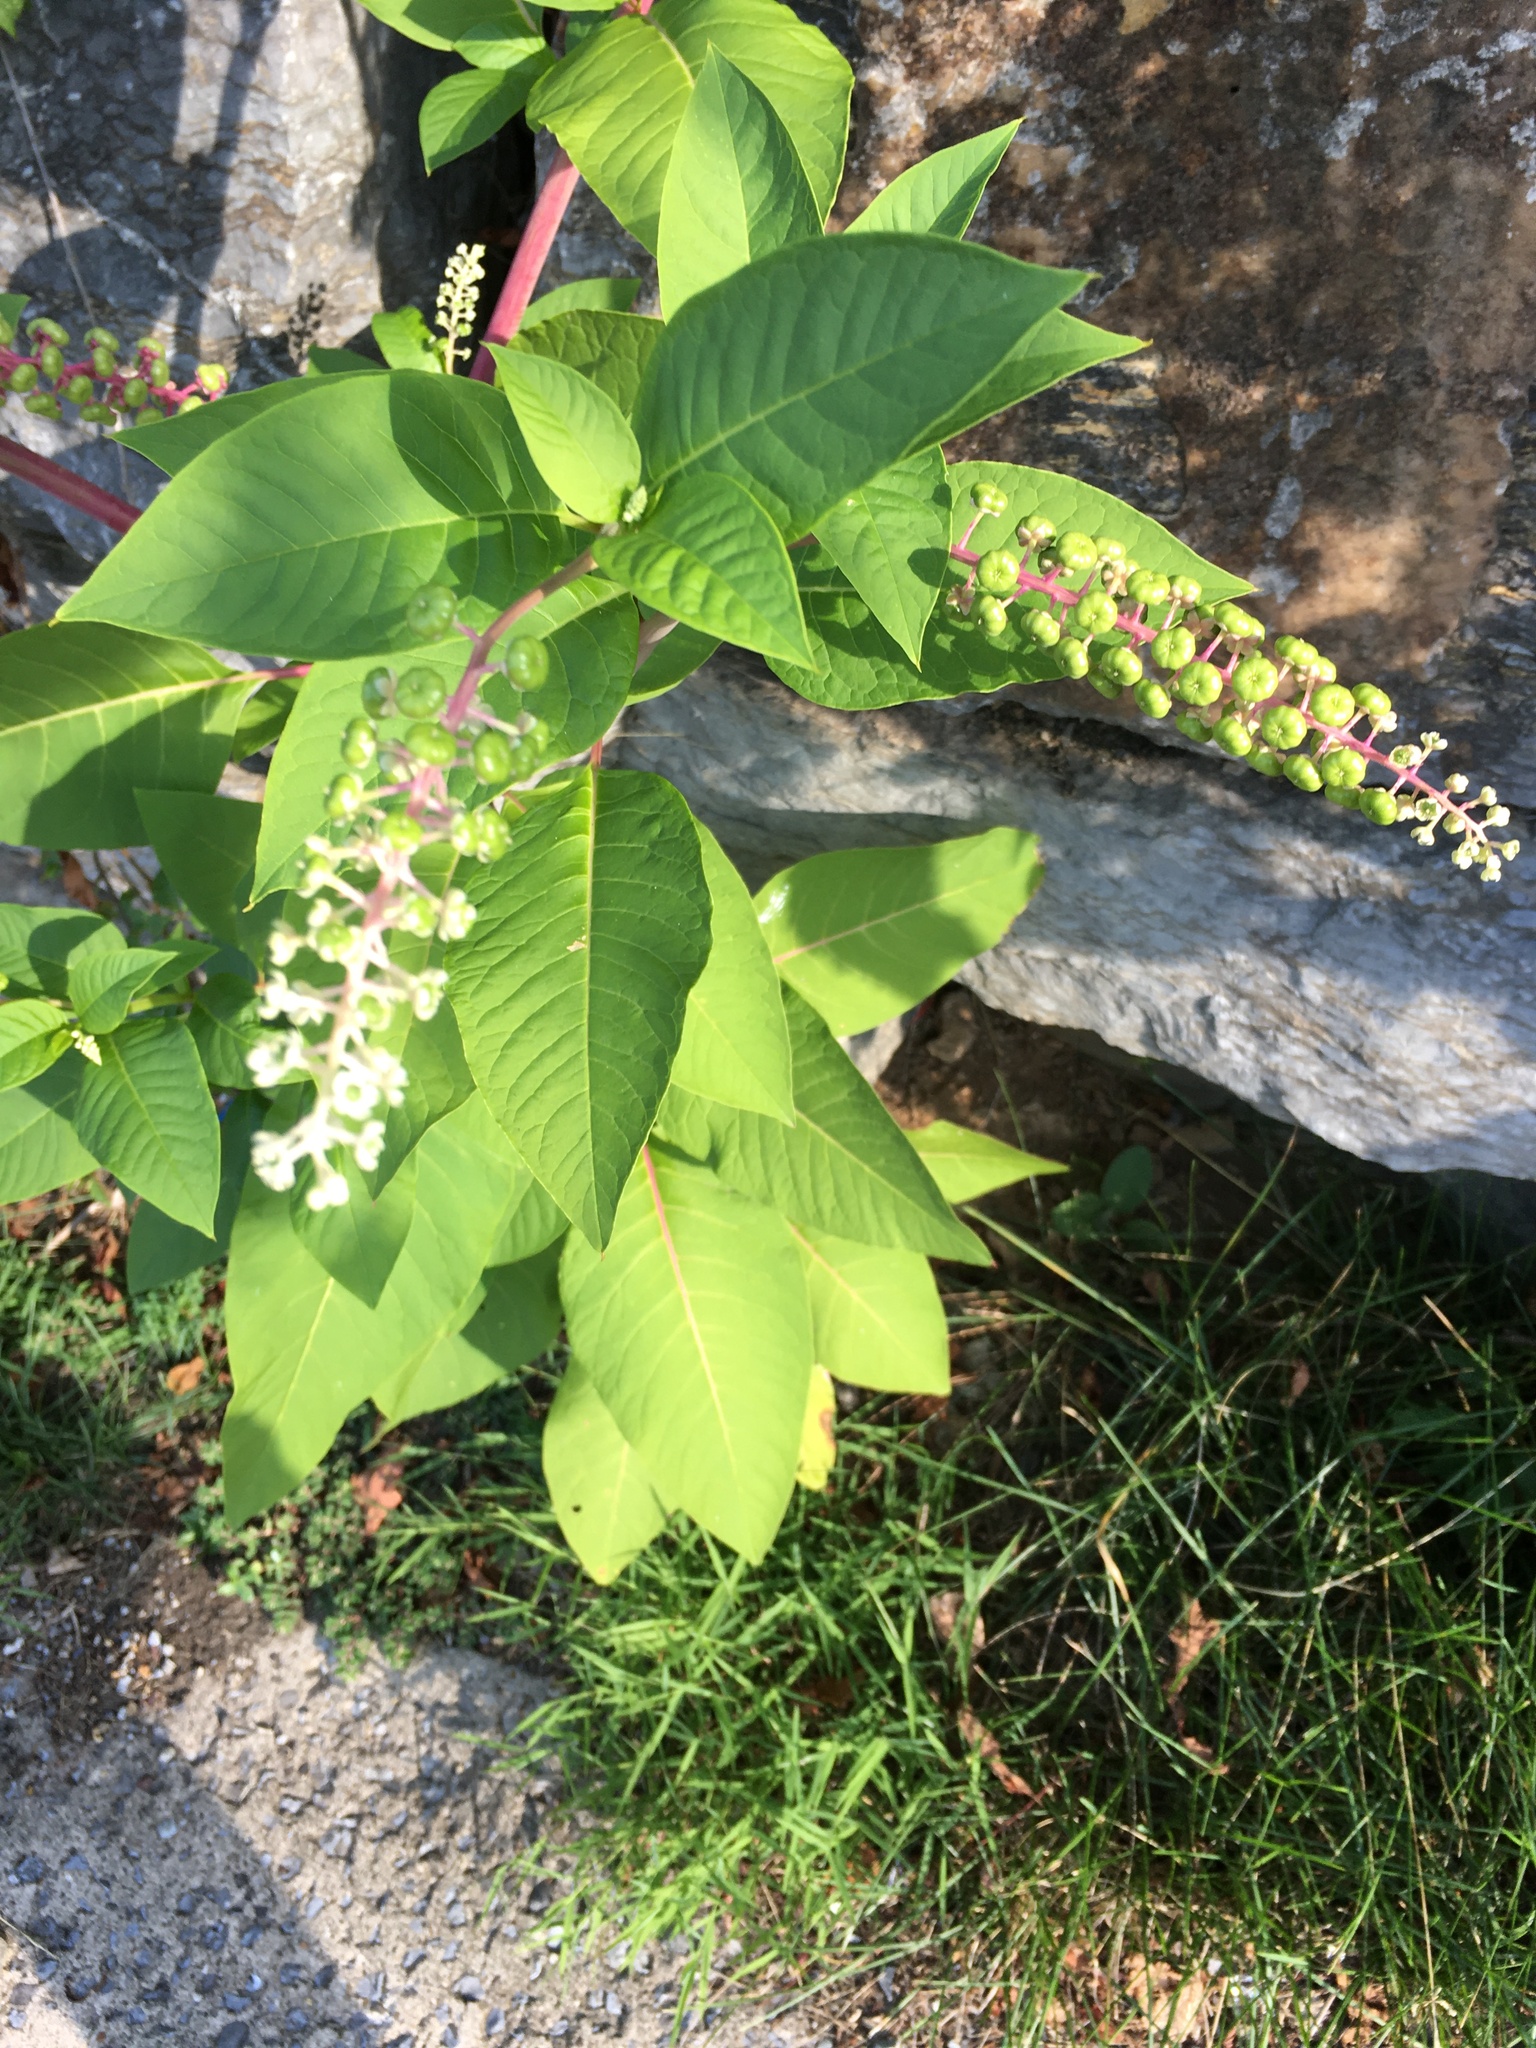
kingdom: Plantae
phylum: Tracheophyta
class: Magnoliopsida
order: Caryophyllales
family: Phytolaccaceae
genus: Phytolacca
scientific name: Phytolacca americana
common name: American pokeweed
